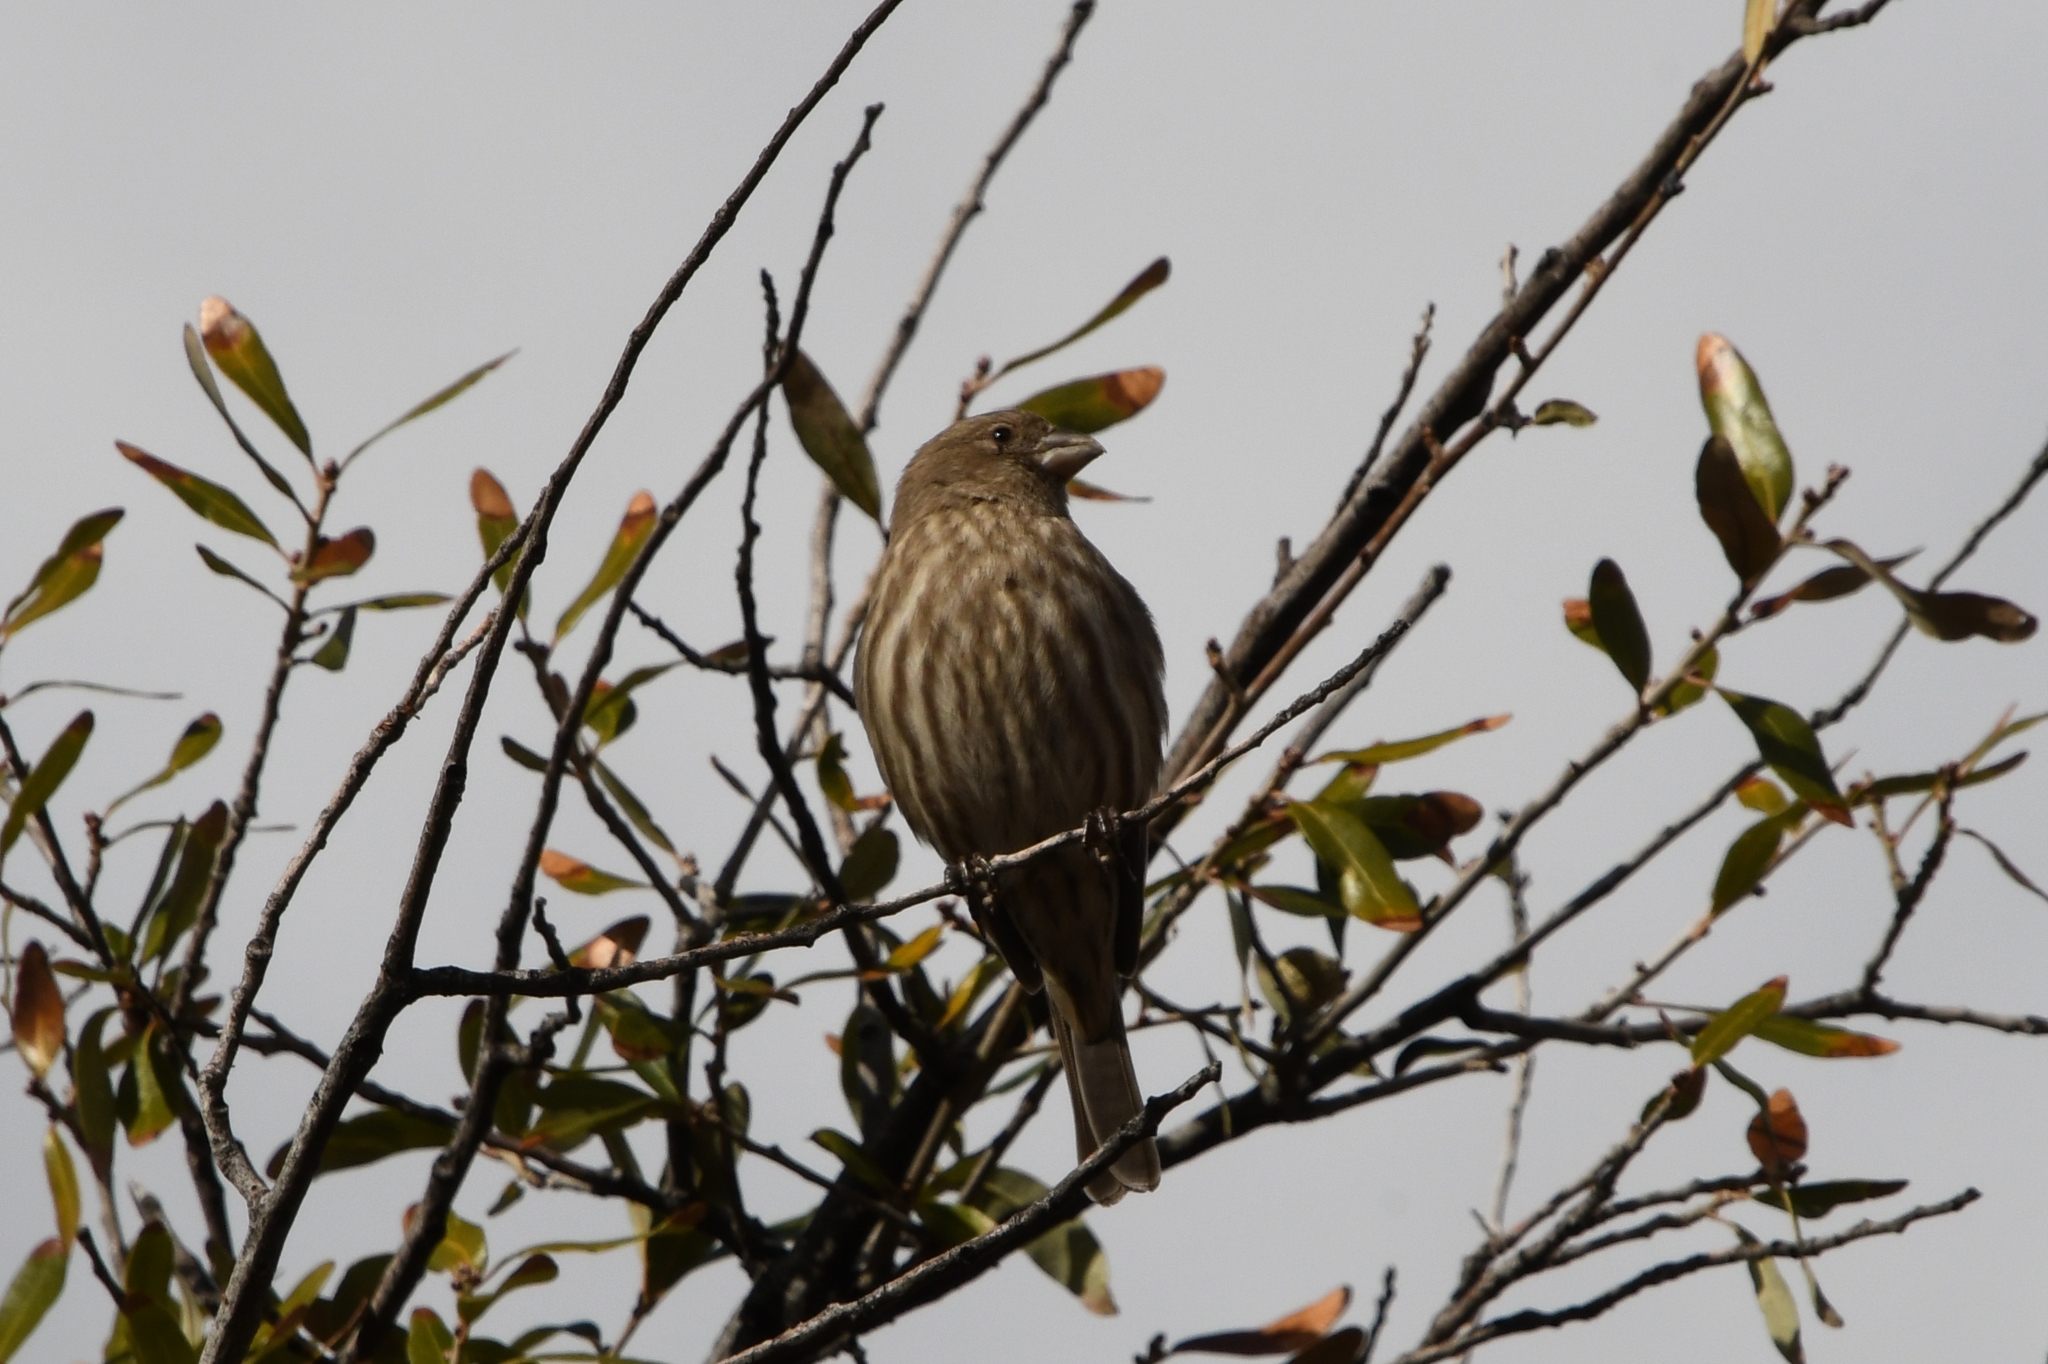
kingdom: Animalia
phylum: Chordata
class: Aves
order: Passeriformes
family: Fringillidae
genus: Haemorhous
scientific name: Haemorhous mexicanus
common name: House finch
